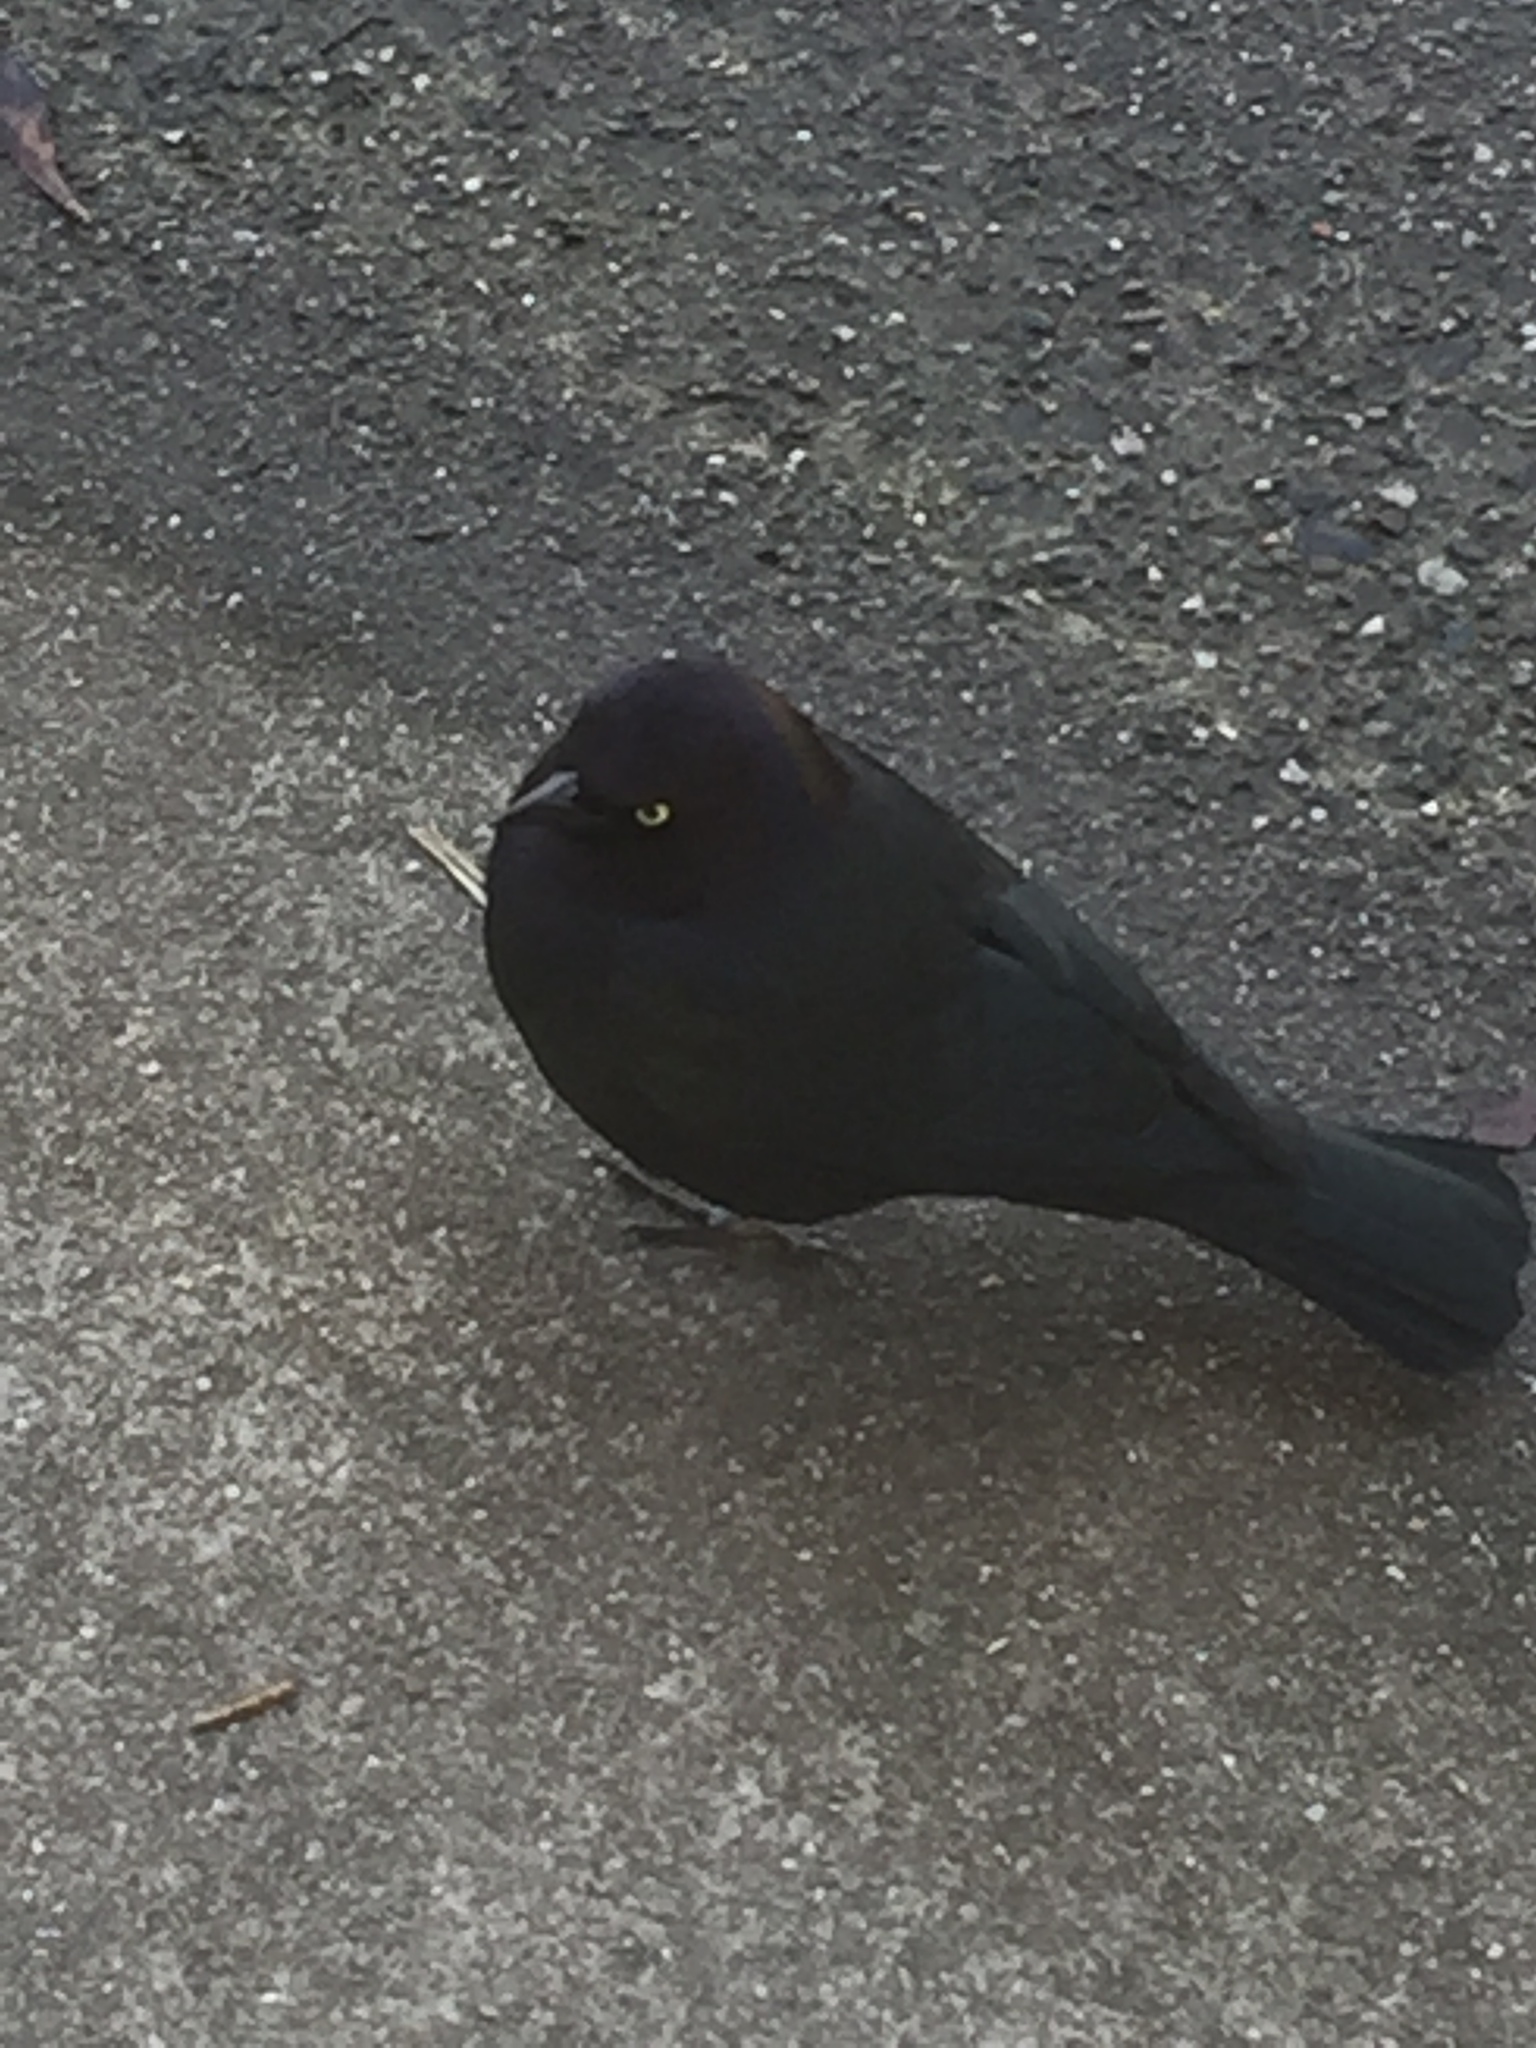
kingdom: Animalia
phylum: Chordata
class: Aves
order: Passeriformes
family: Icteridae
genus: Euphagus
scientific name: Euphagus cyanocephalus
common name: Brewer's blackbird
